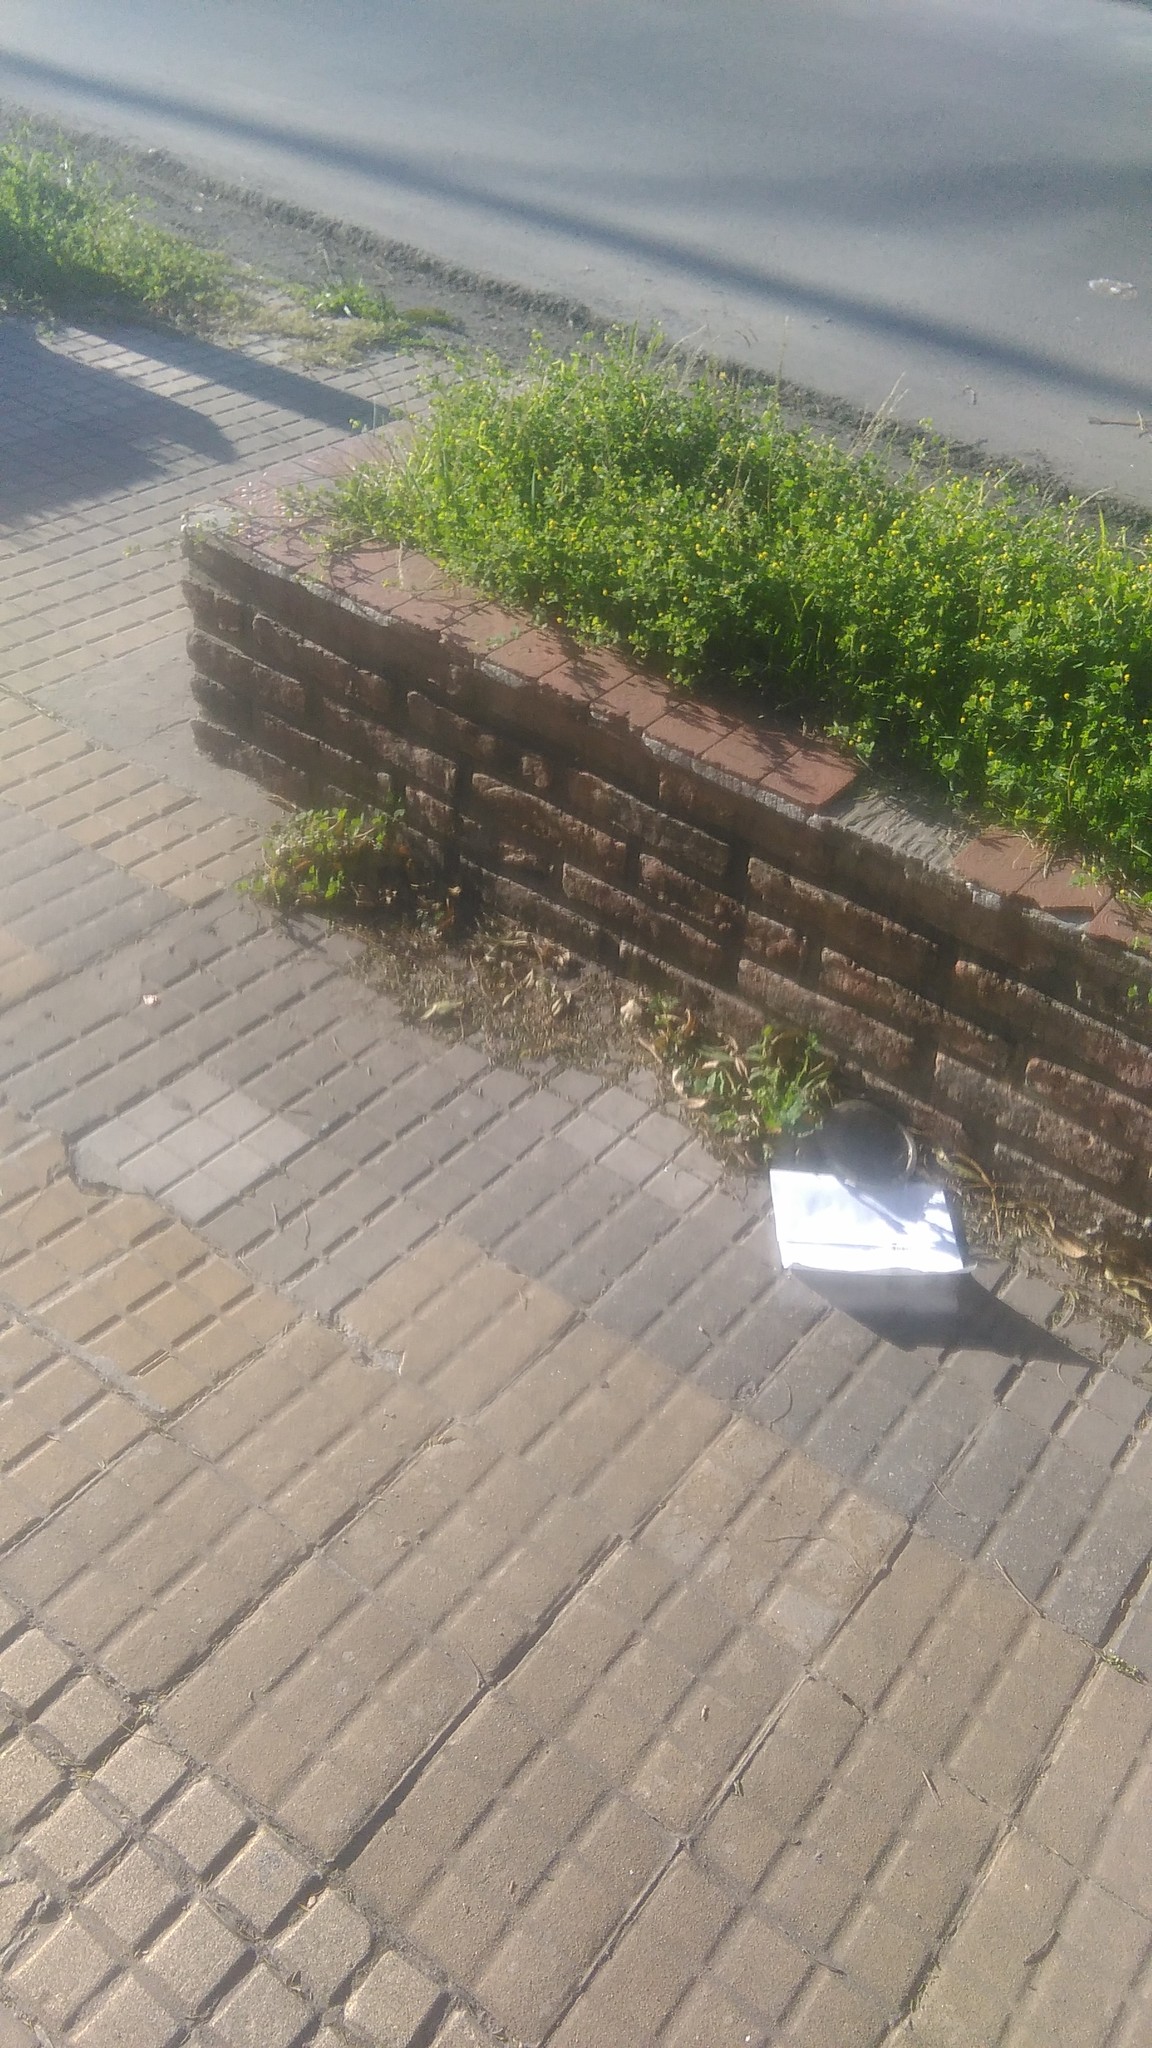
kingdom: Plantae
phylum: Tracheophyta
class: Magnoliopsida
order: Fabales
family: Fabaceae
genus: Medicago
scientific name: Medicago lupulina
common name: Black medick
